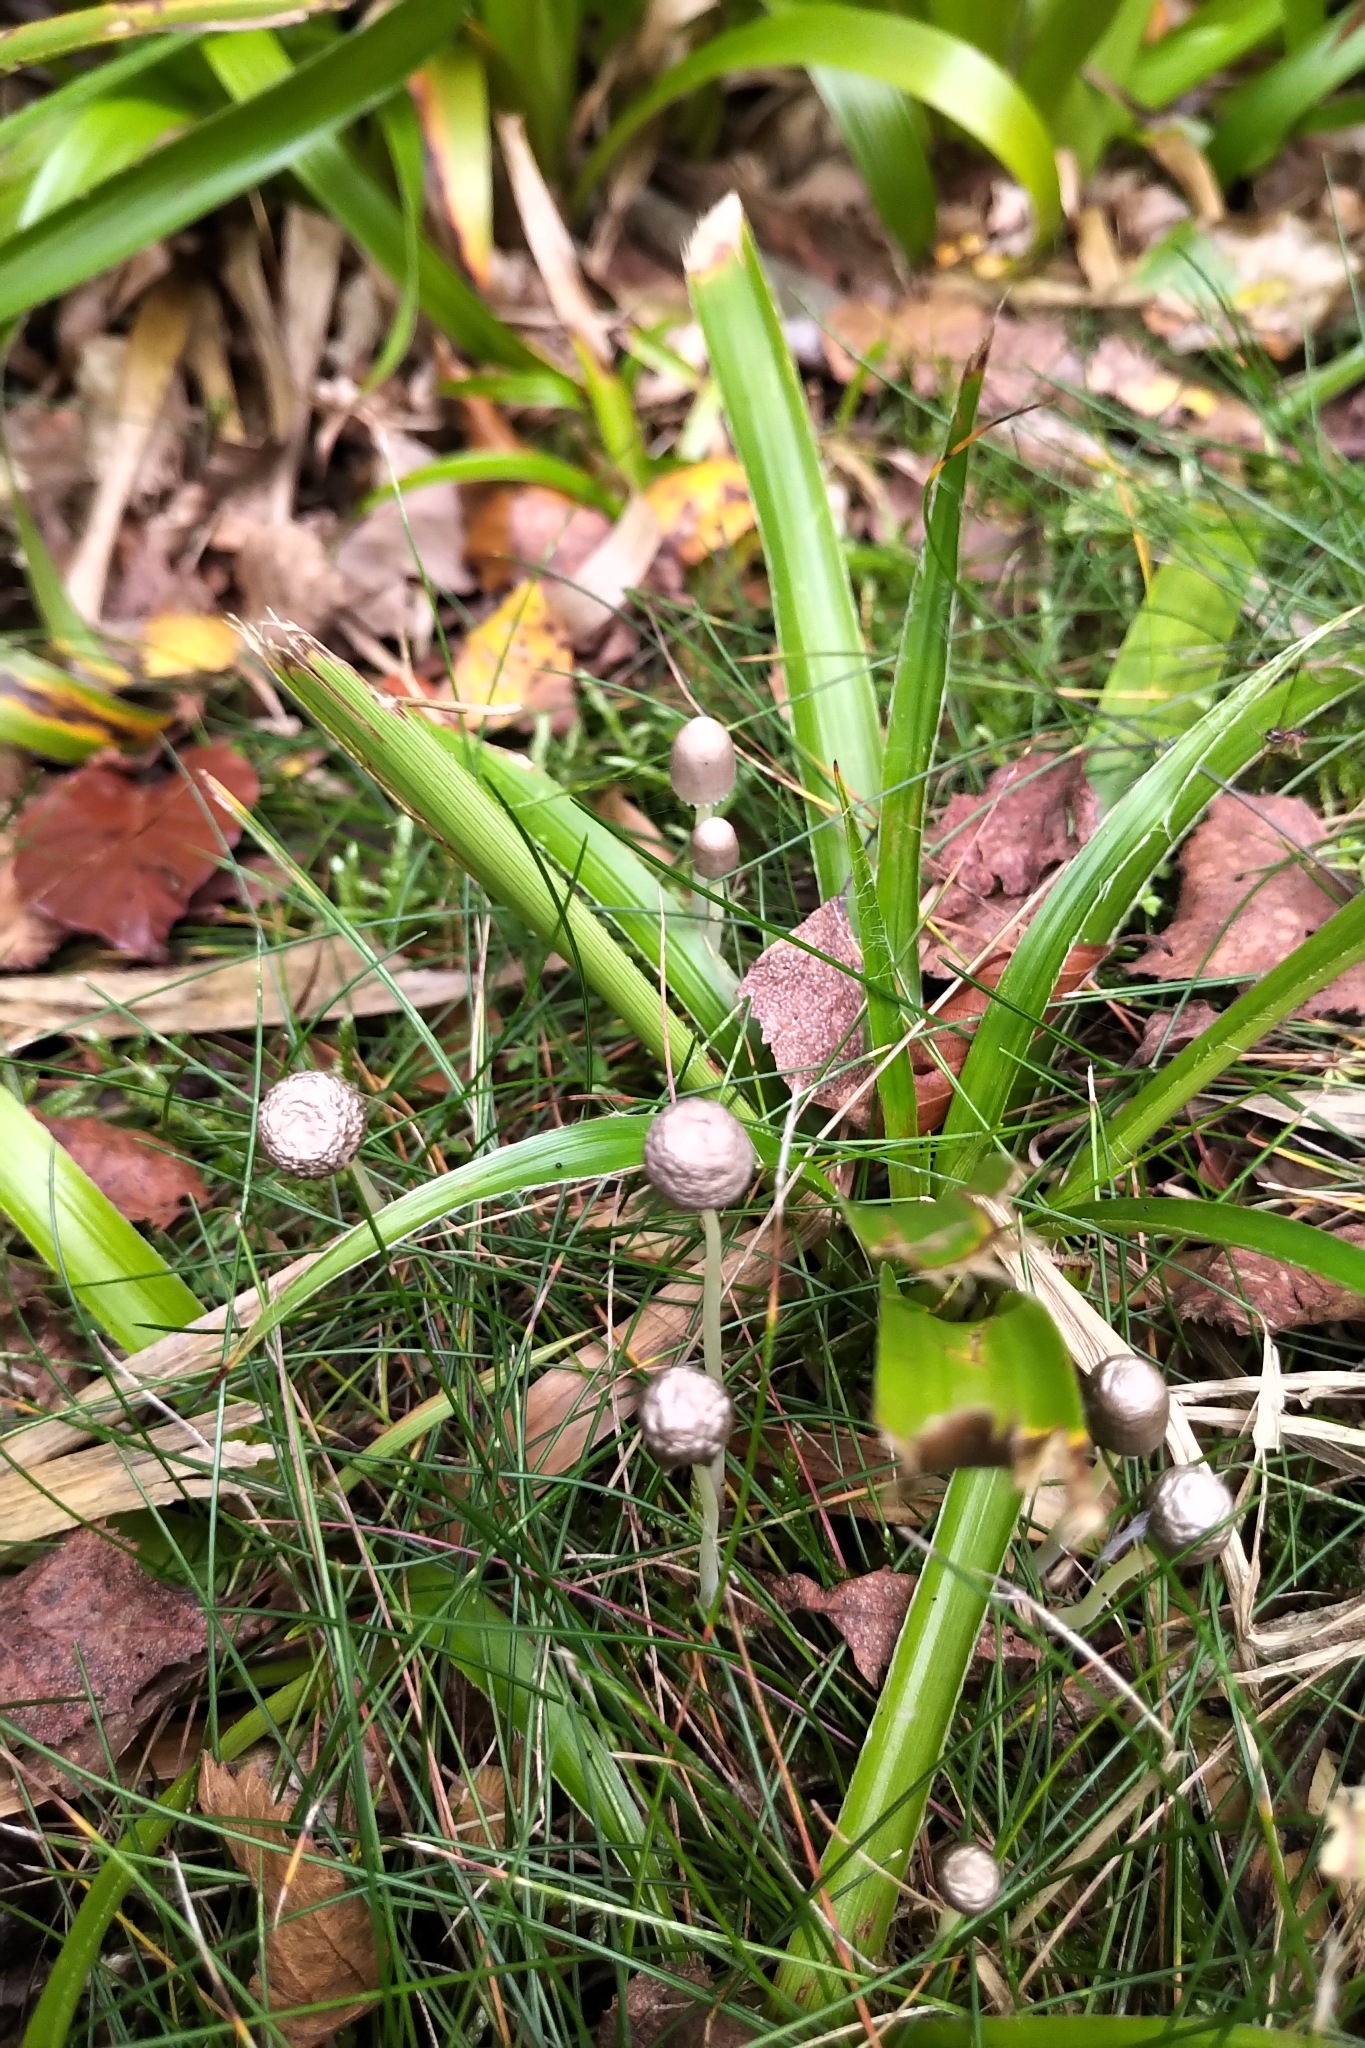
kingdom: Fungi
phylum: Basidiomycota
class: Agaricomycetes
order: Agaricales
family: Mycenaceae
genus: Mycena
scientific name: Mycena epipterygia
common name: Yellowleg bonnet
